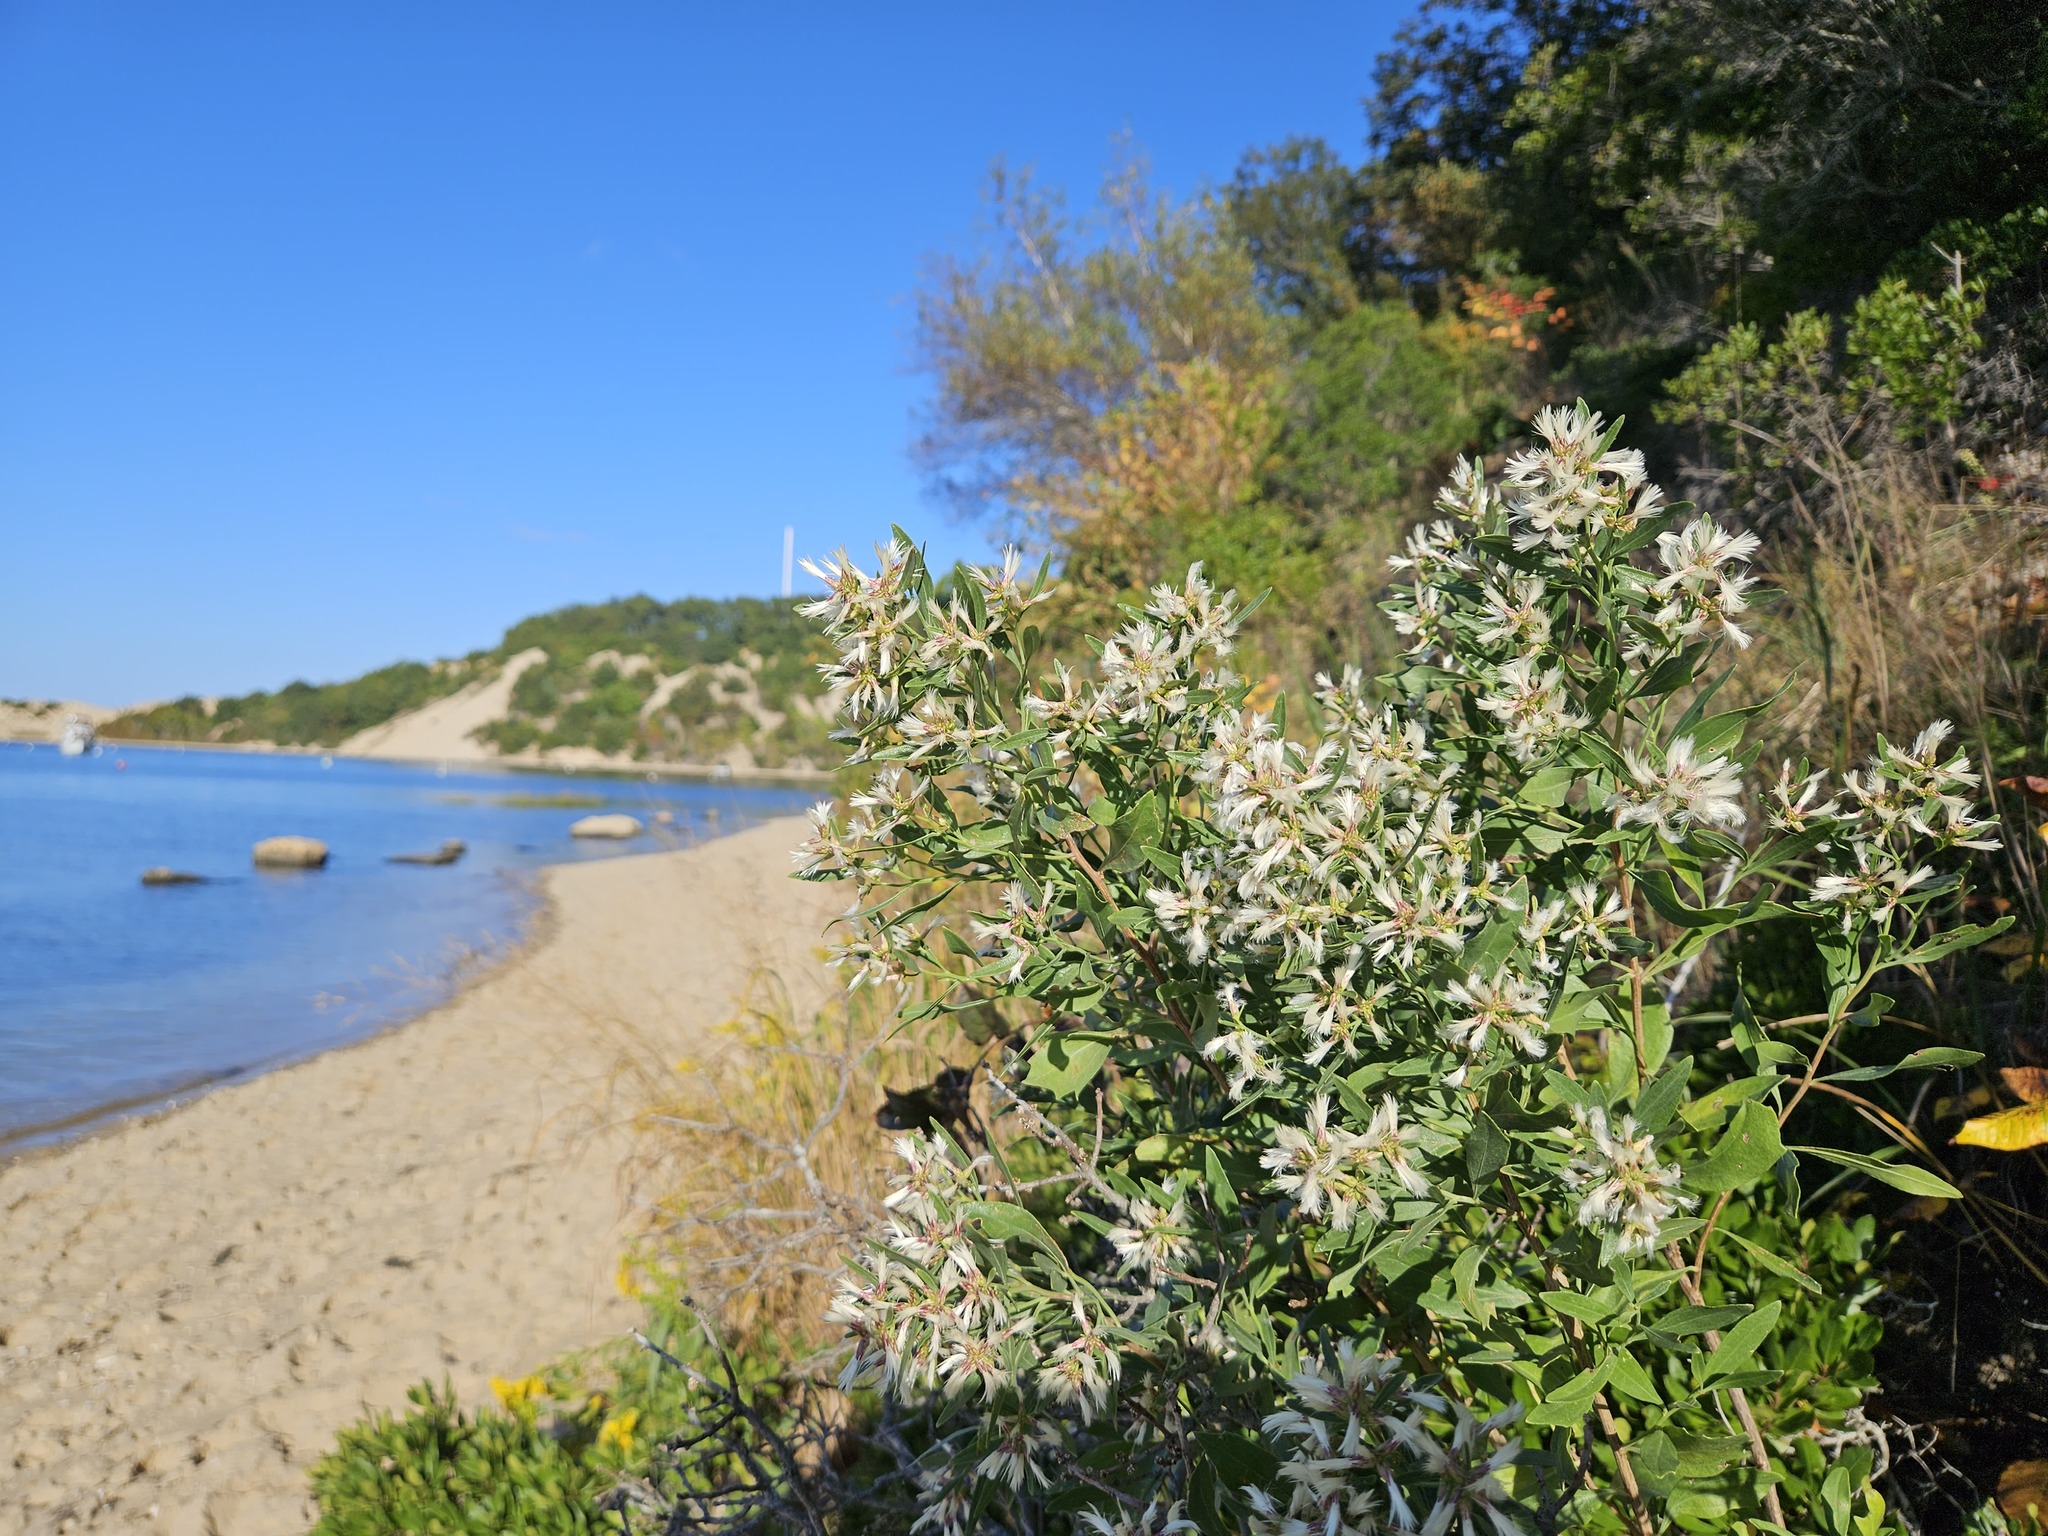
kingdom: Plantae
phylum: Tracheophyta
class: Magnoliopsida
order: Asterales
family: Asteraceae
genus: Baccharis
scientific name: Baccharis halimifolia
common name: Eastern baccharis
